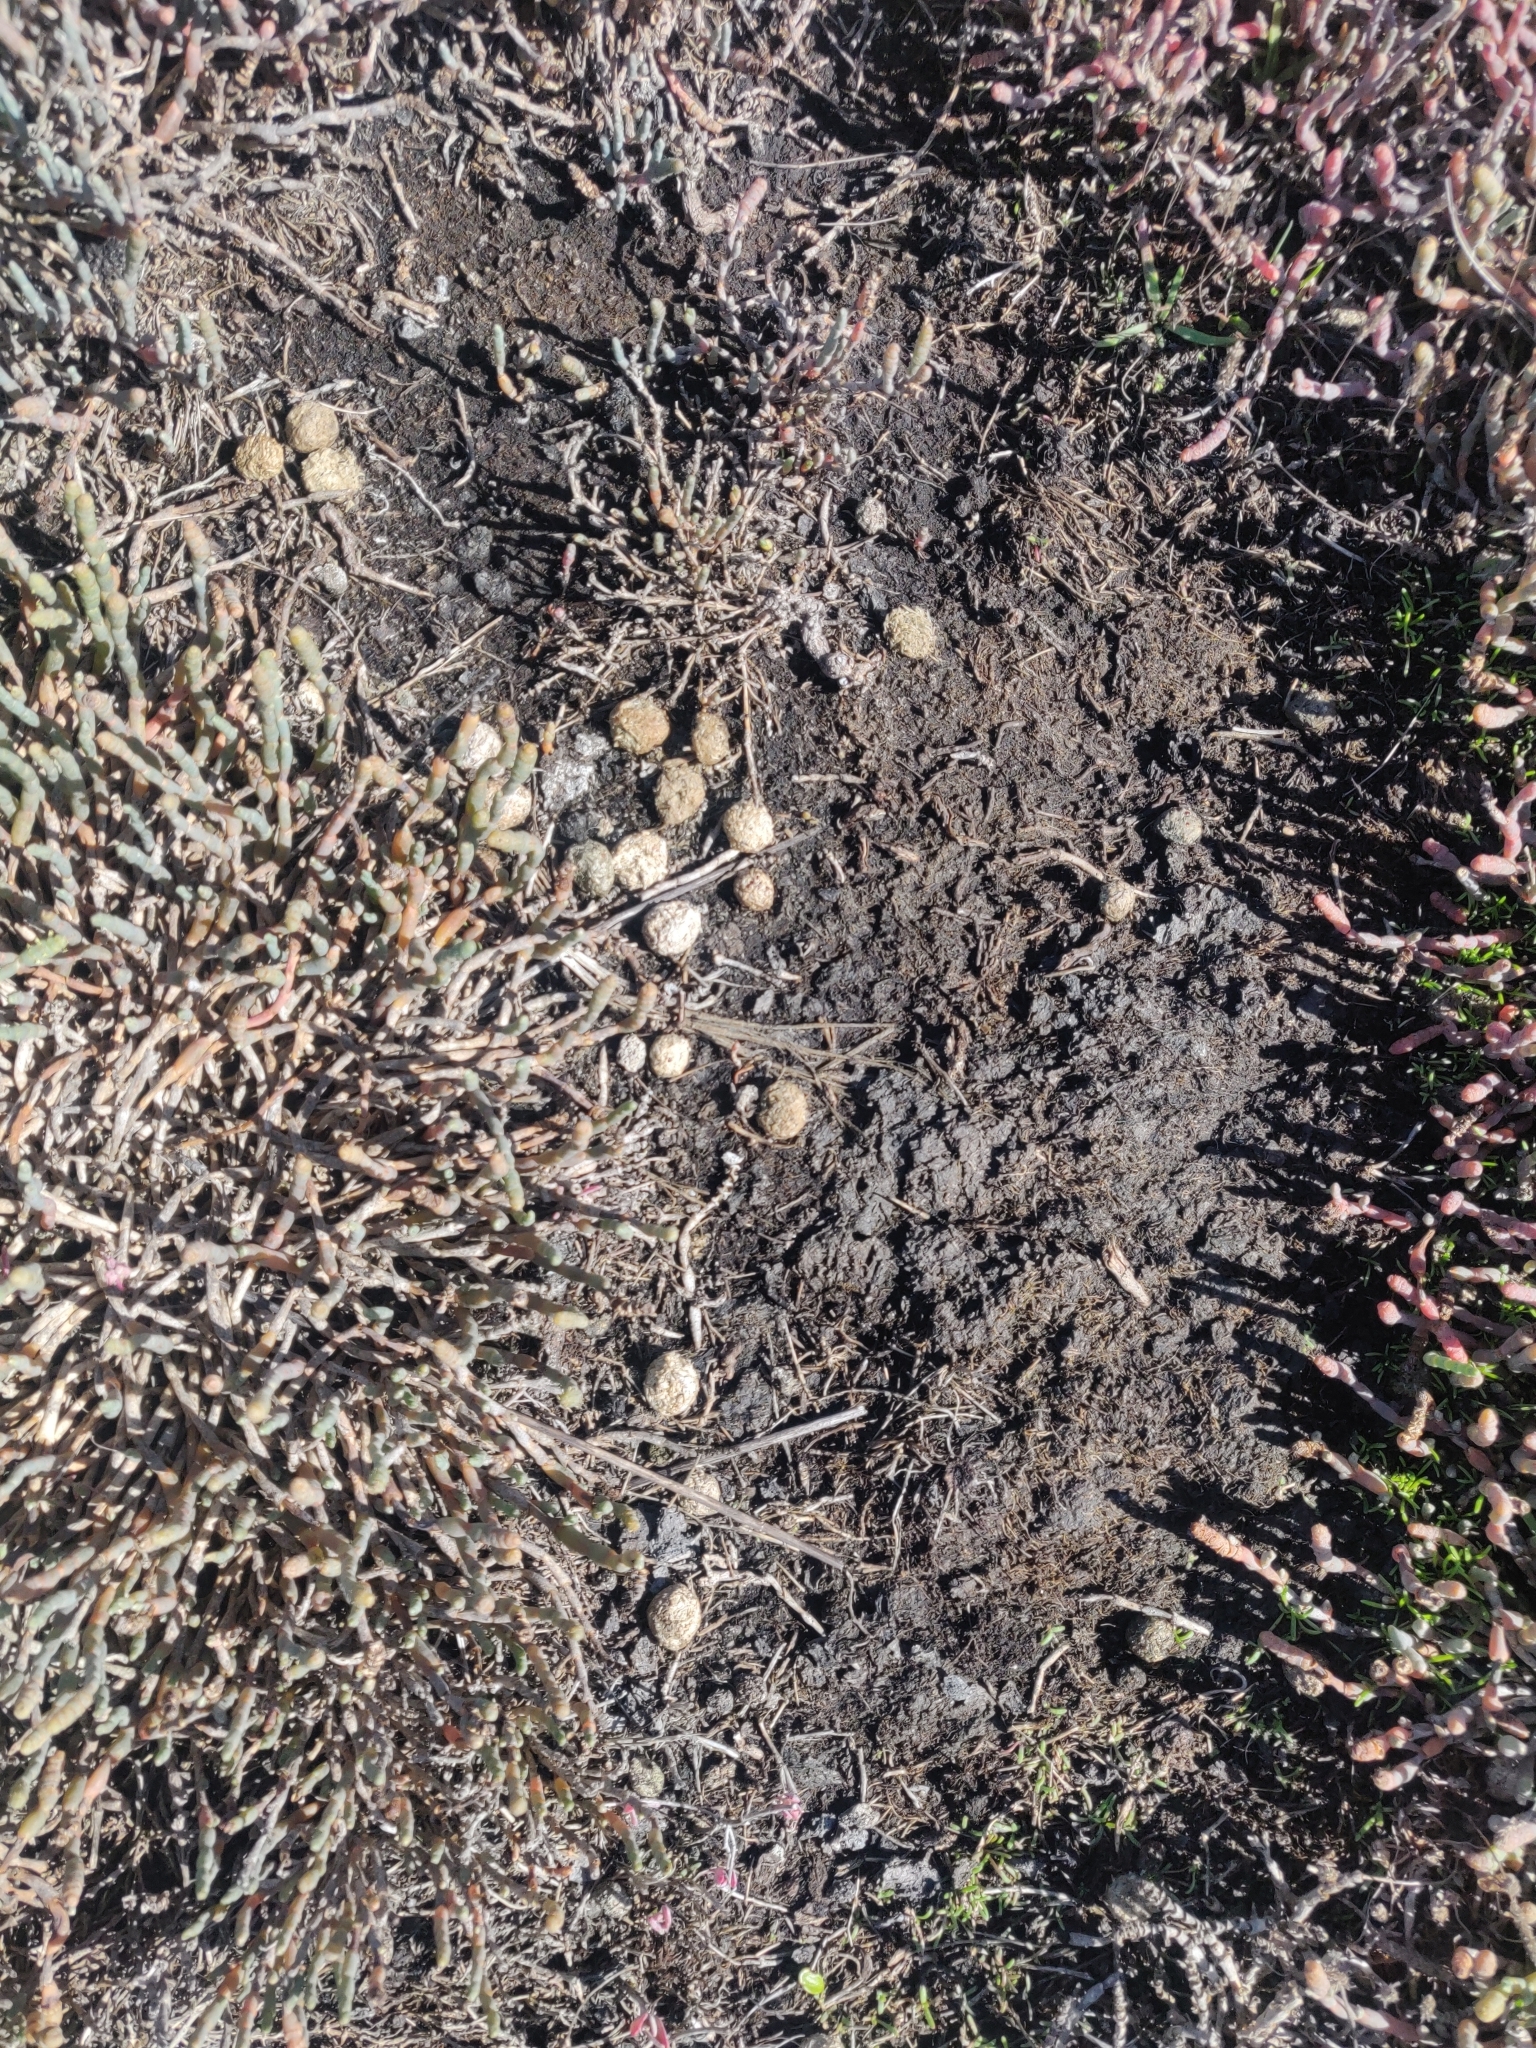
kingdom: Animalia
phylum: Chordata
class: Mammalia
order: Lagomorpha
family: Leporidae
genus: Oryctolagus
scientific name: Oryctolagus cuniculus
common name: European rabbit
